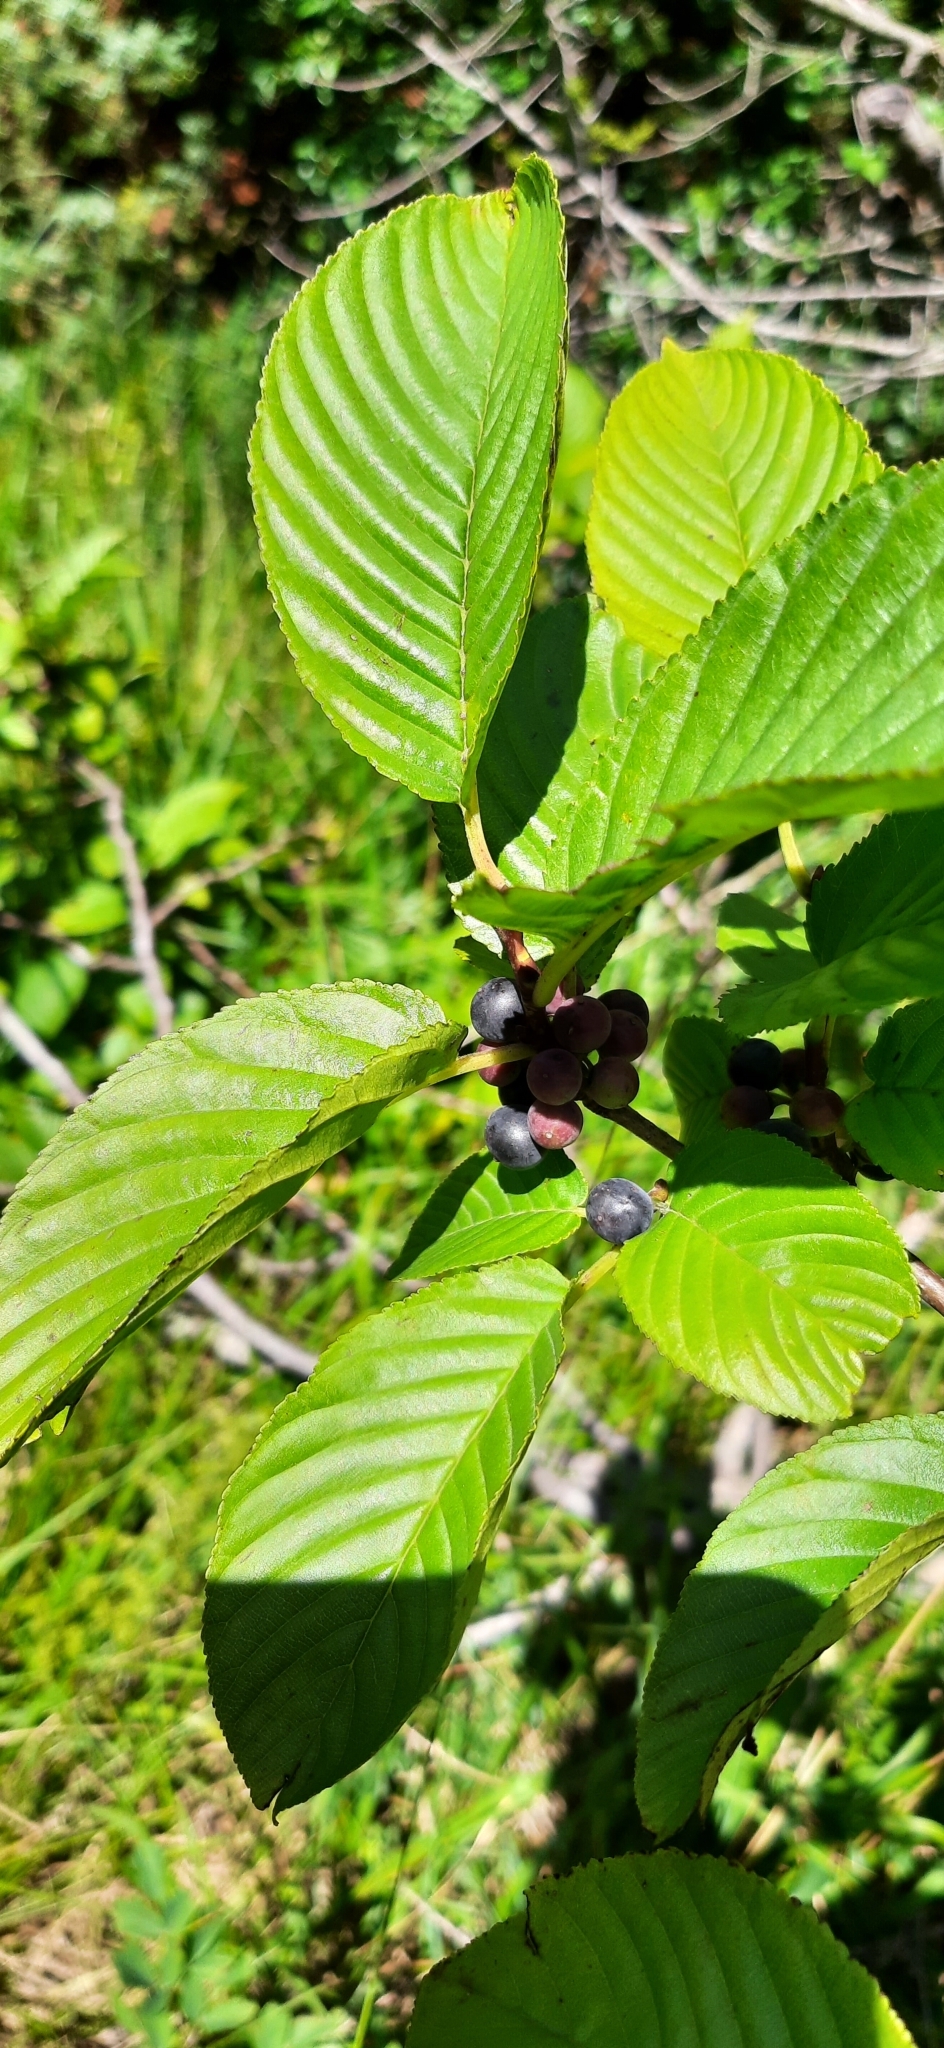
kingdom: Plantae
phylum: Tracheophyta
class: Magnoliopsida
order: Rosales
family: Rhamnaceae
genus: Atadinus
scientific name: Atadinus fallax
